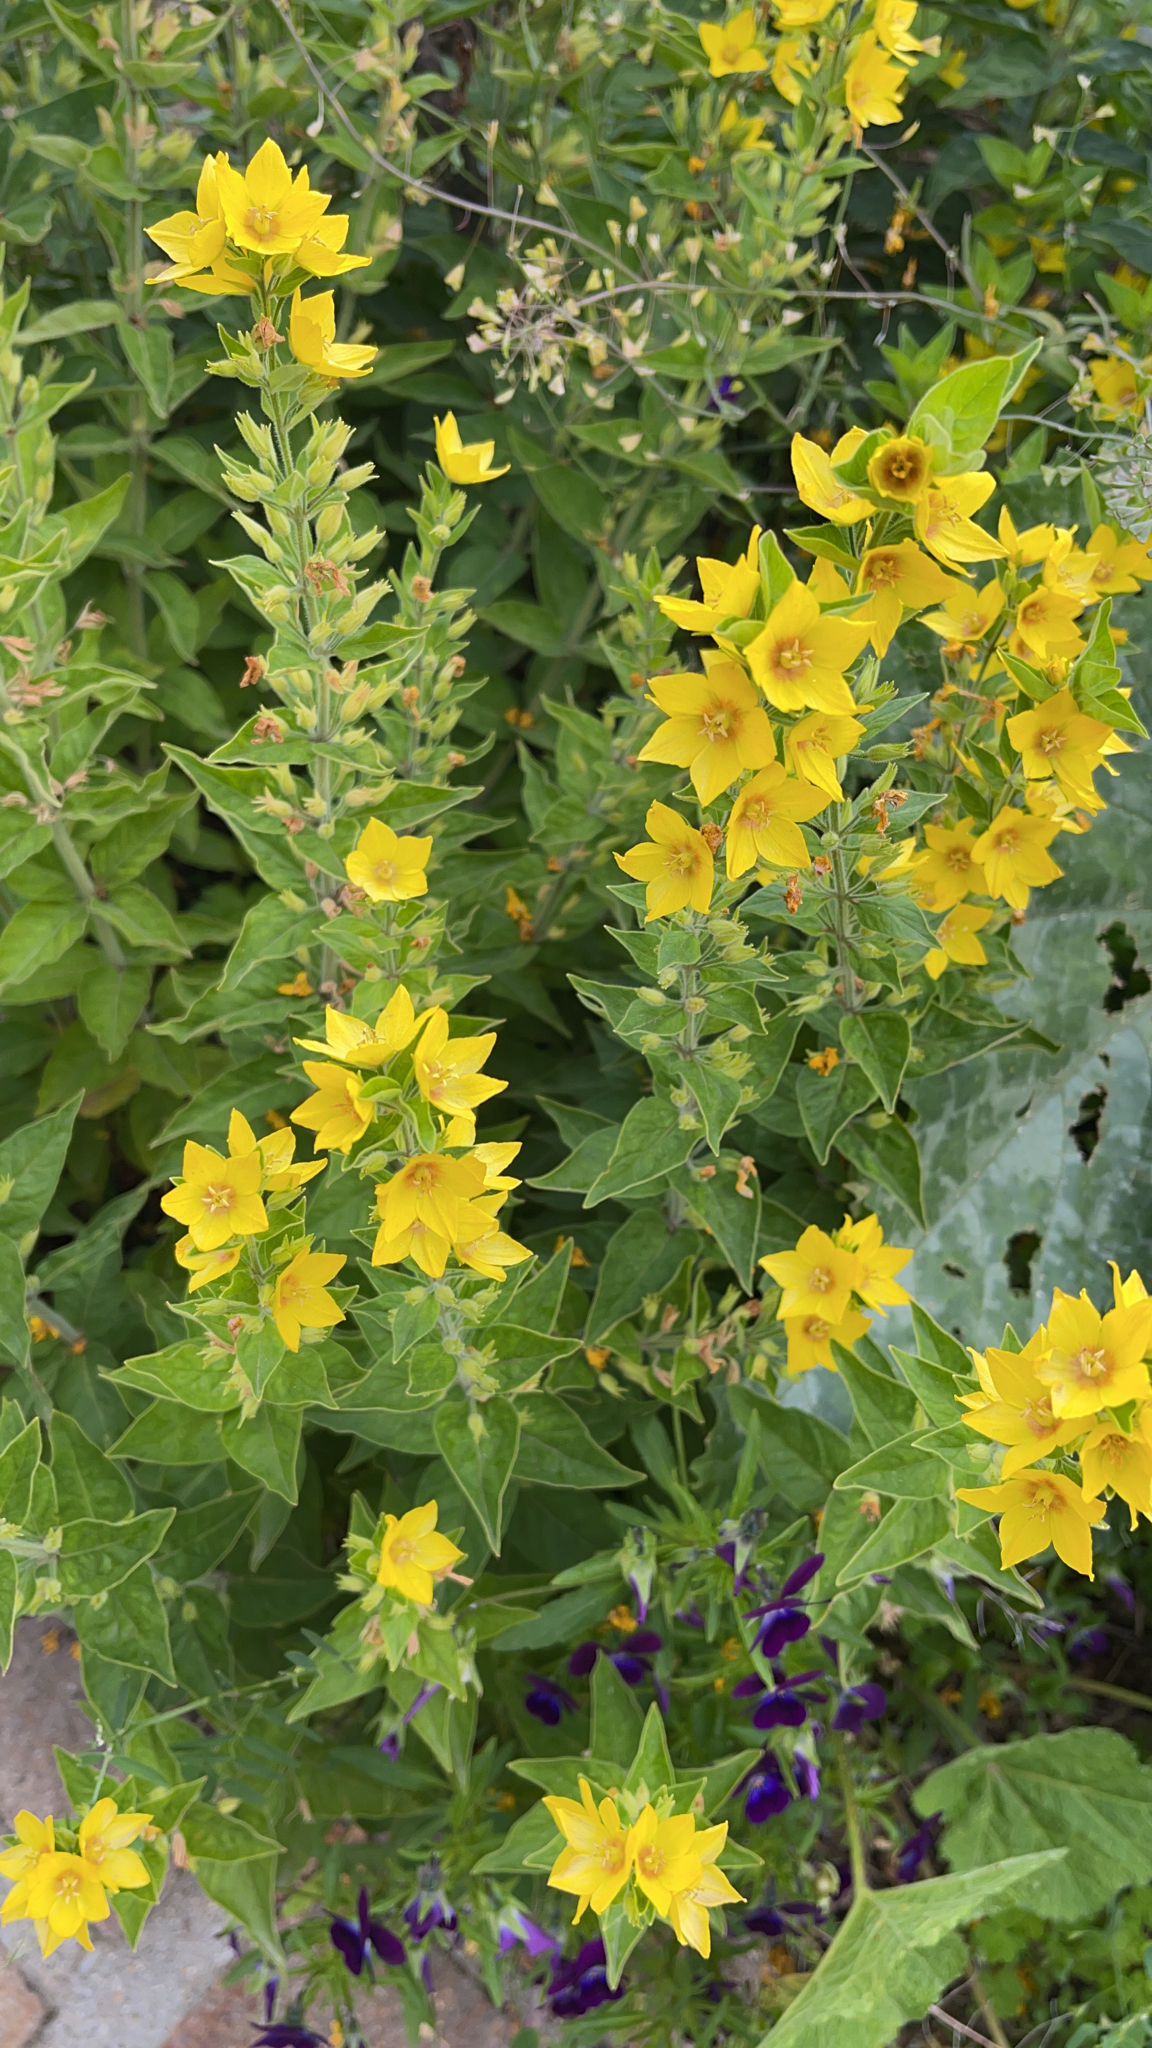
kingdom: Plantae
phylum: Tracheophyta
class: Magnoliopsida
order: Ericales
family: Primulaceae
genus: Lysimachia
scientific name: Lysimachia punctata
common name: Dotted loosestrife
